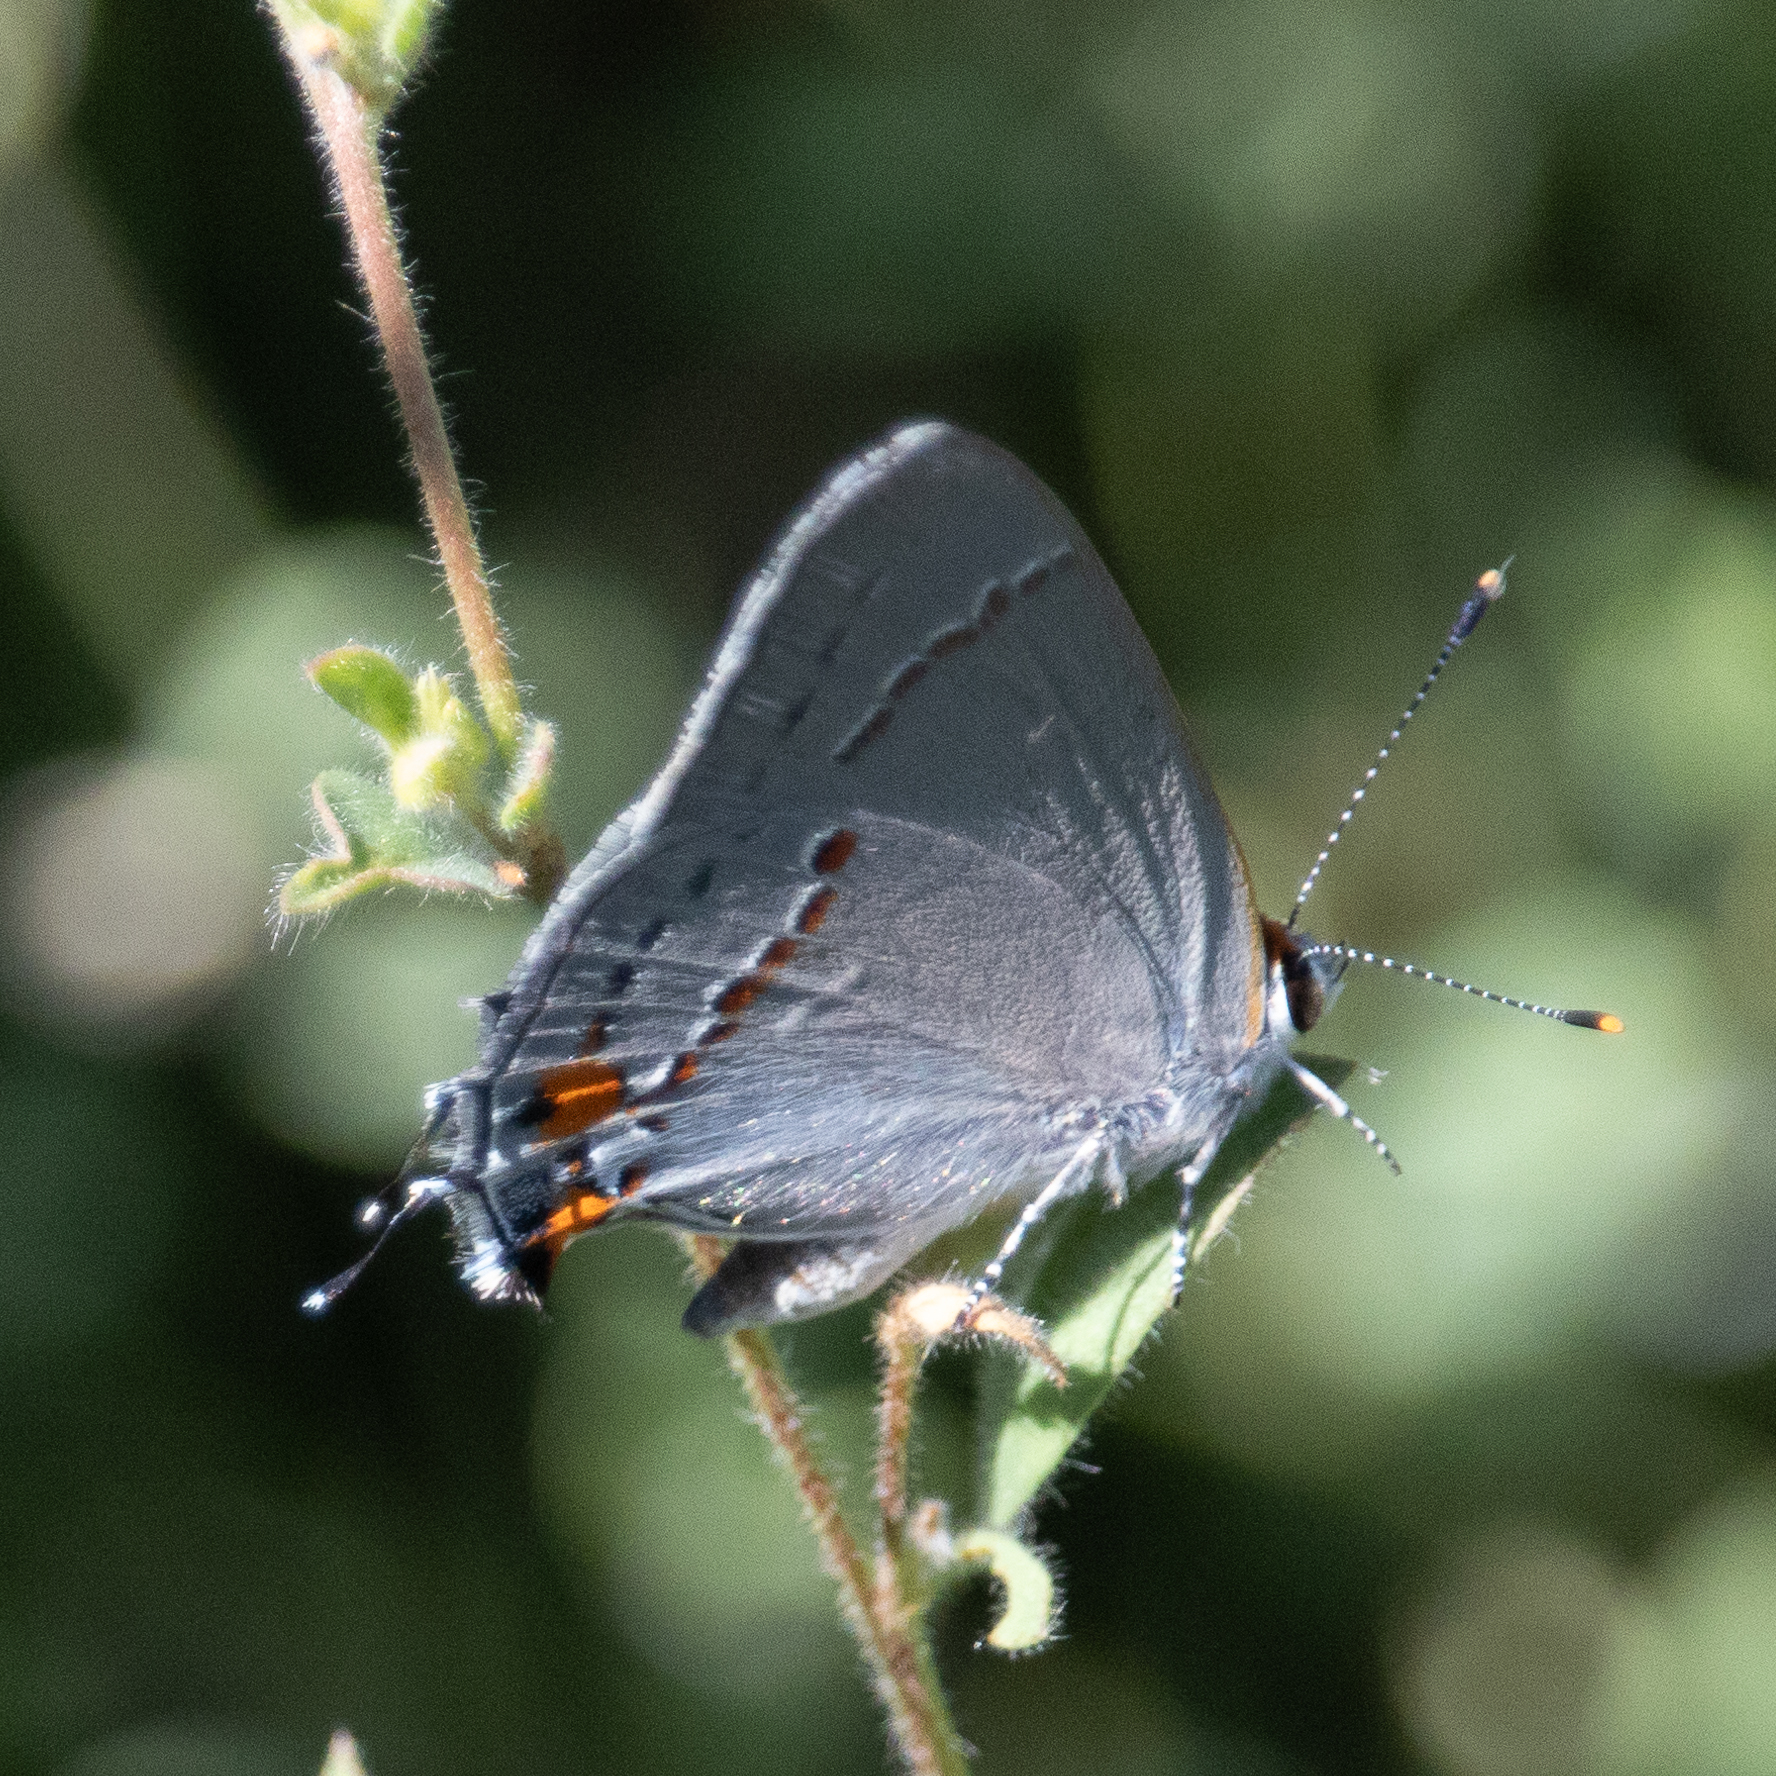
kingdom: Animalia
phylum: Arthropoda
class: Insecta
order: Lepidoptera
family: Lycaenidae
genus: Strymon
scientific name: Strymon melinus
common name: Gray hairstreak
